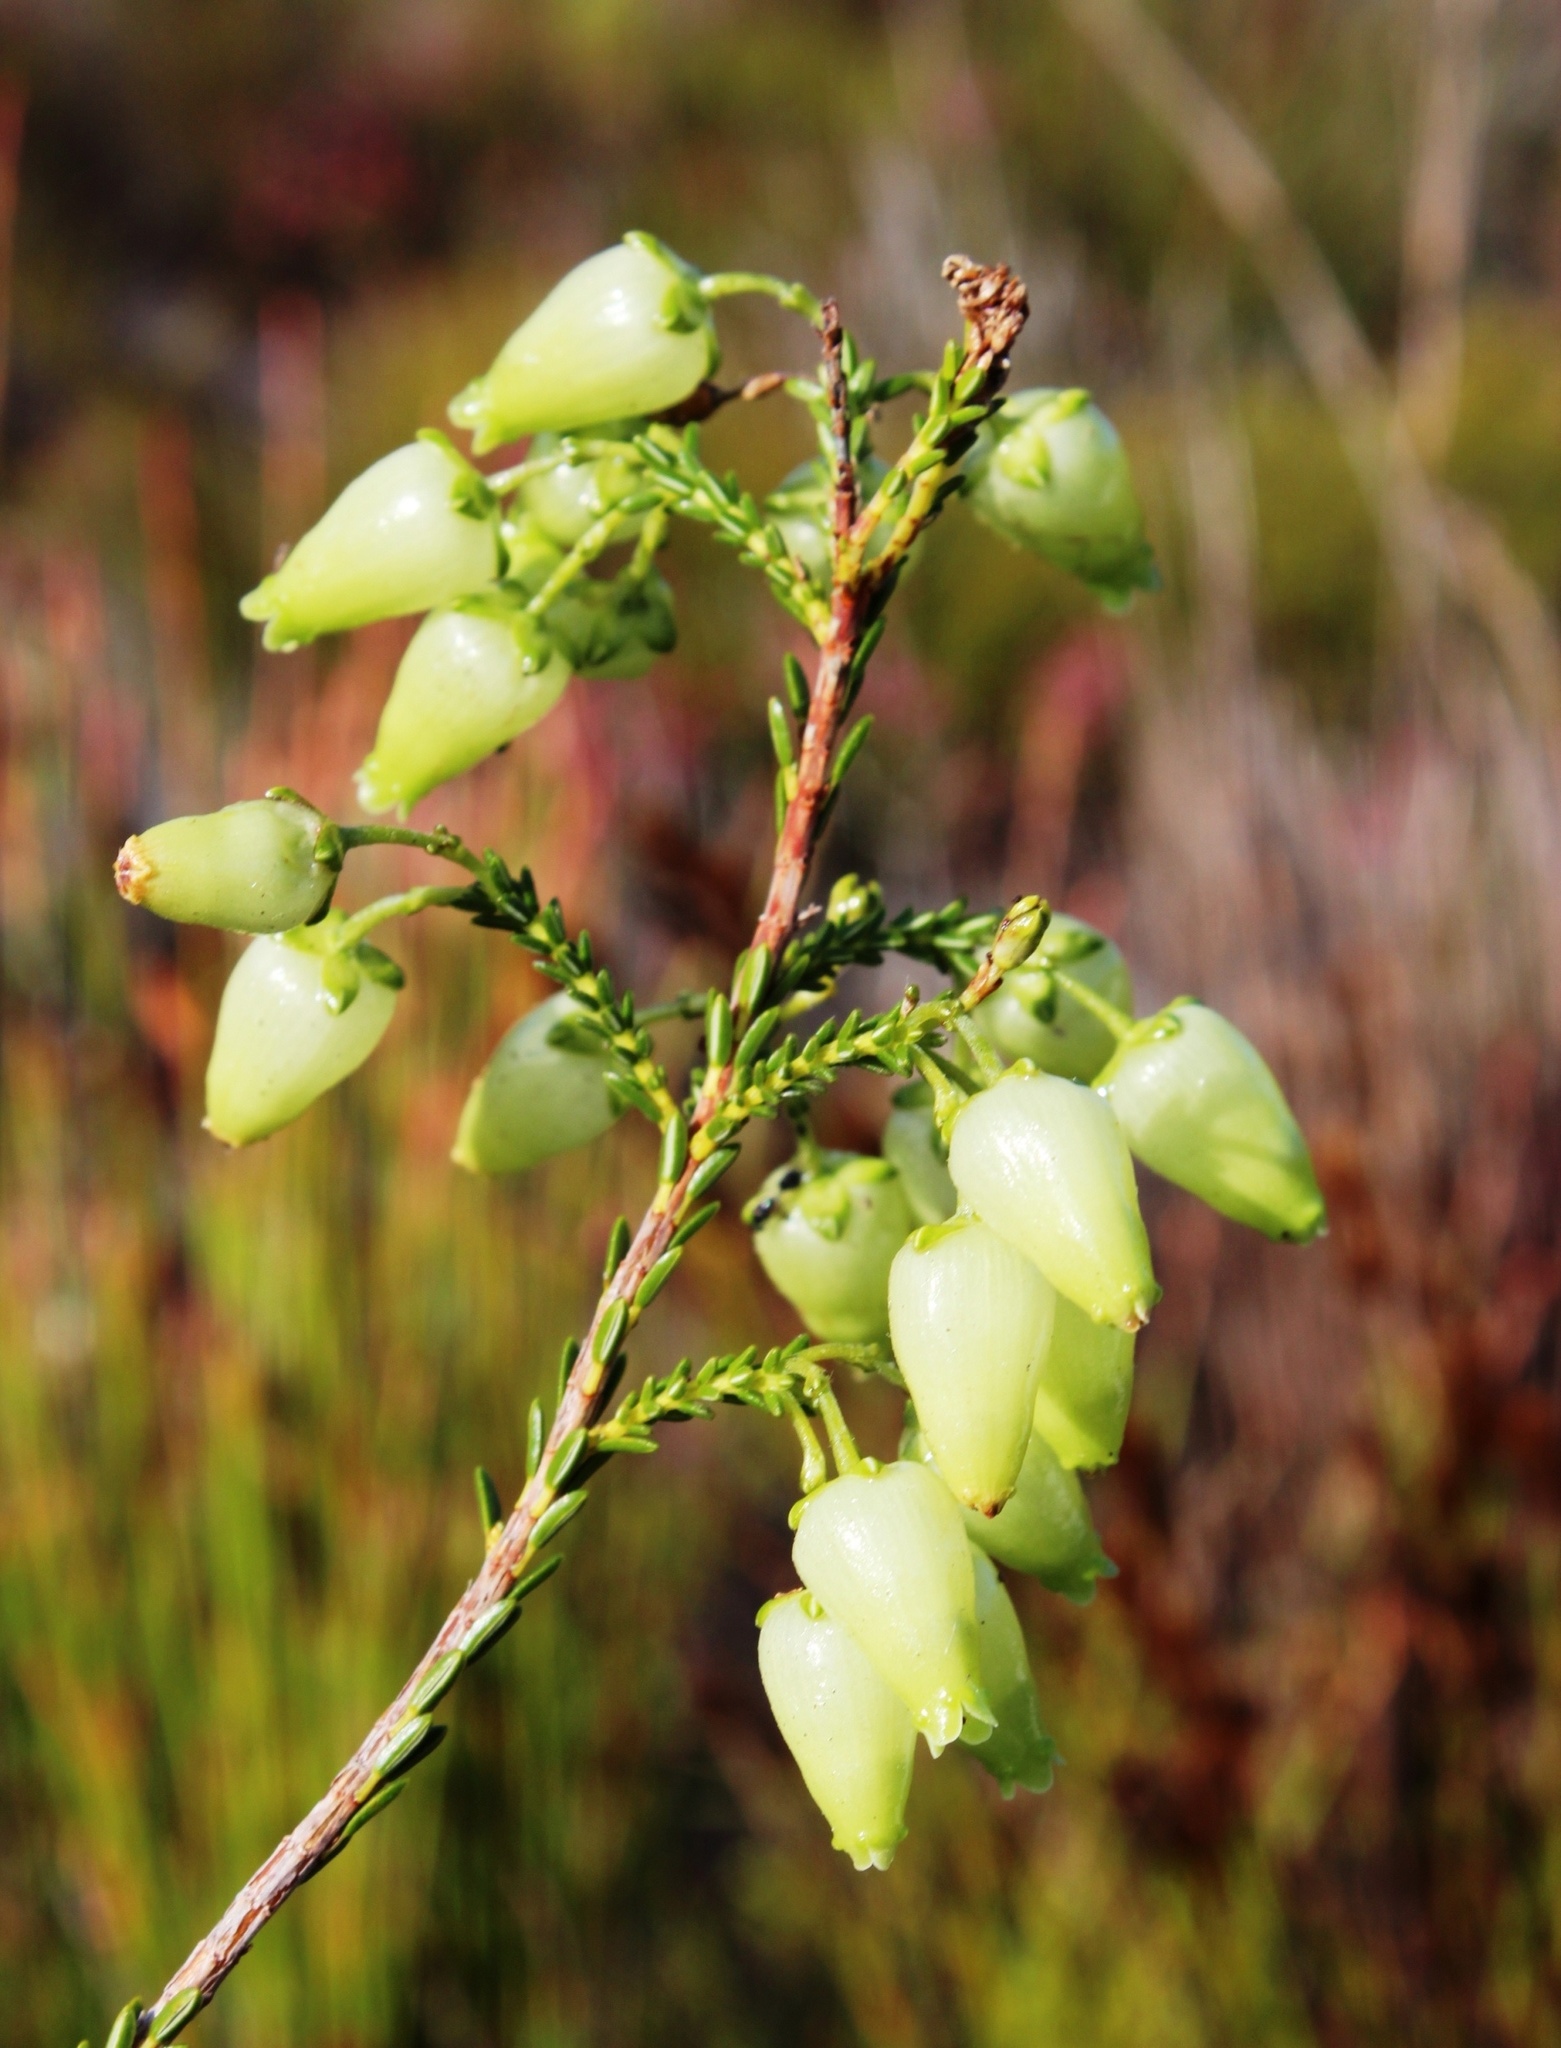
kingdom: Plantae
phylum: Tracheophyta
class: Magnoliopsida
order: Ericales
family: Ericaceae
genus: Erica
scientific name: Erica urna-viridis
